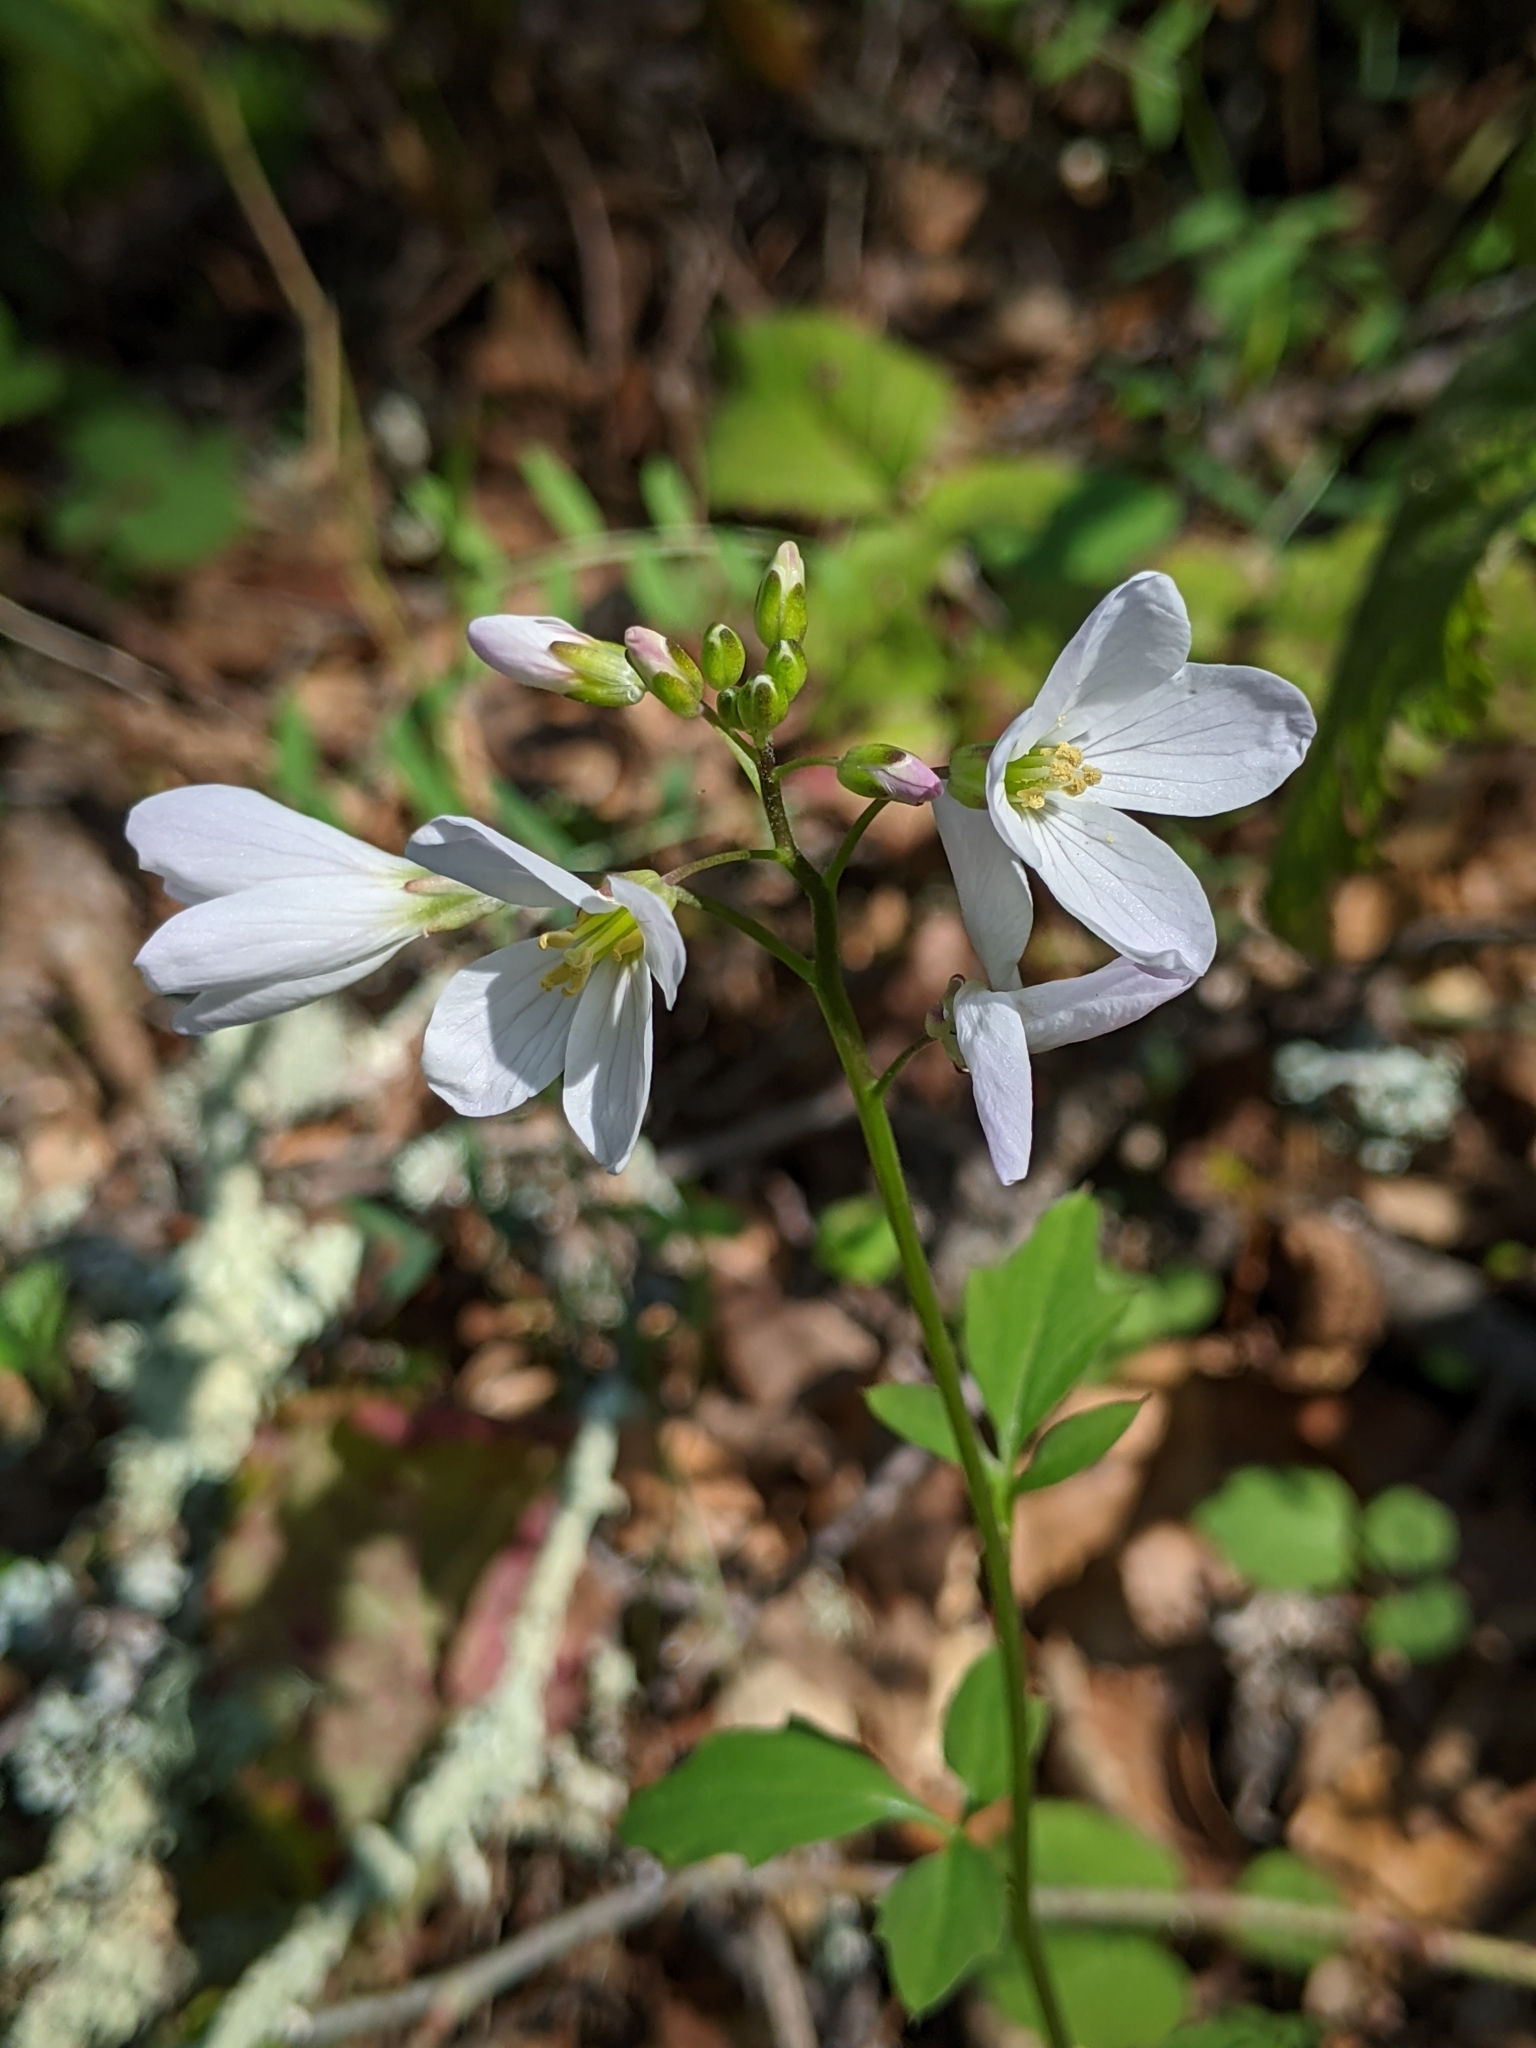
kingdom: Plantae
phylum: Tracheophyta
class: Magnoliopsida
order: Brassicales
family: Brassicaceae
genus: Cardamine
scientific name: Cardamine californica
